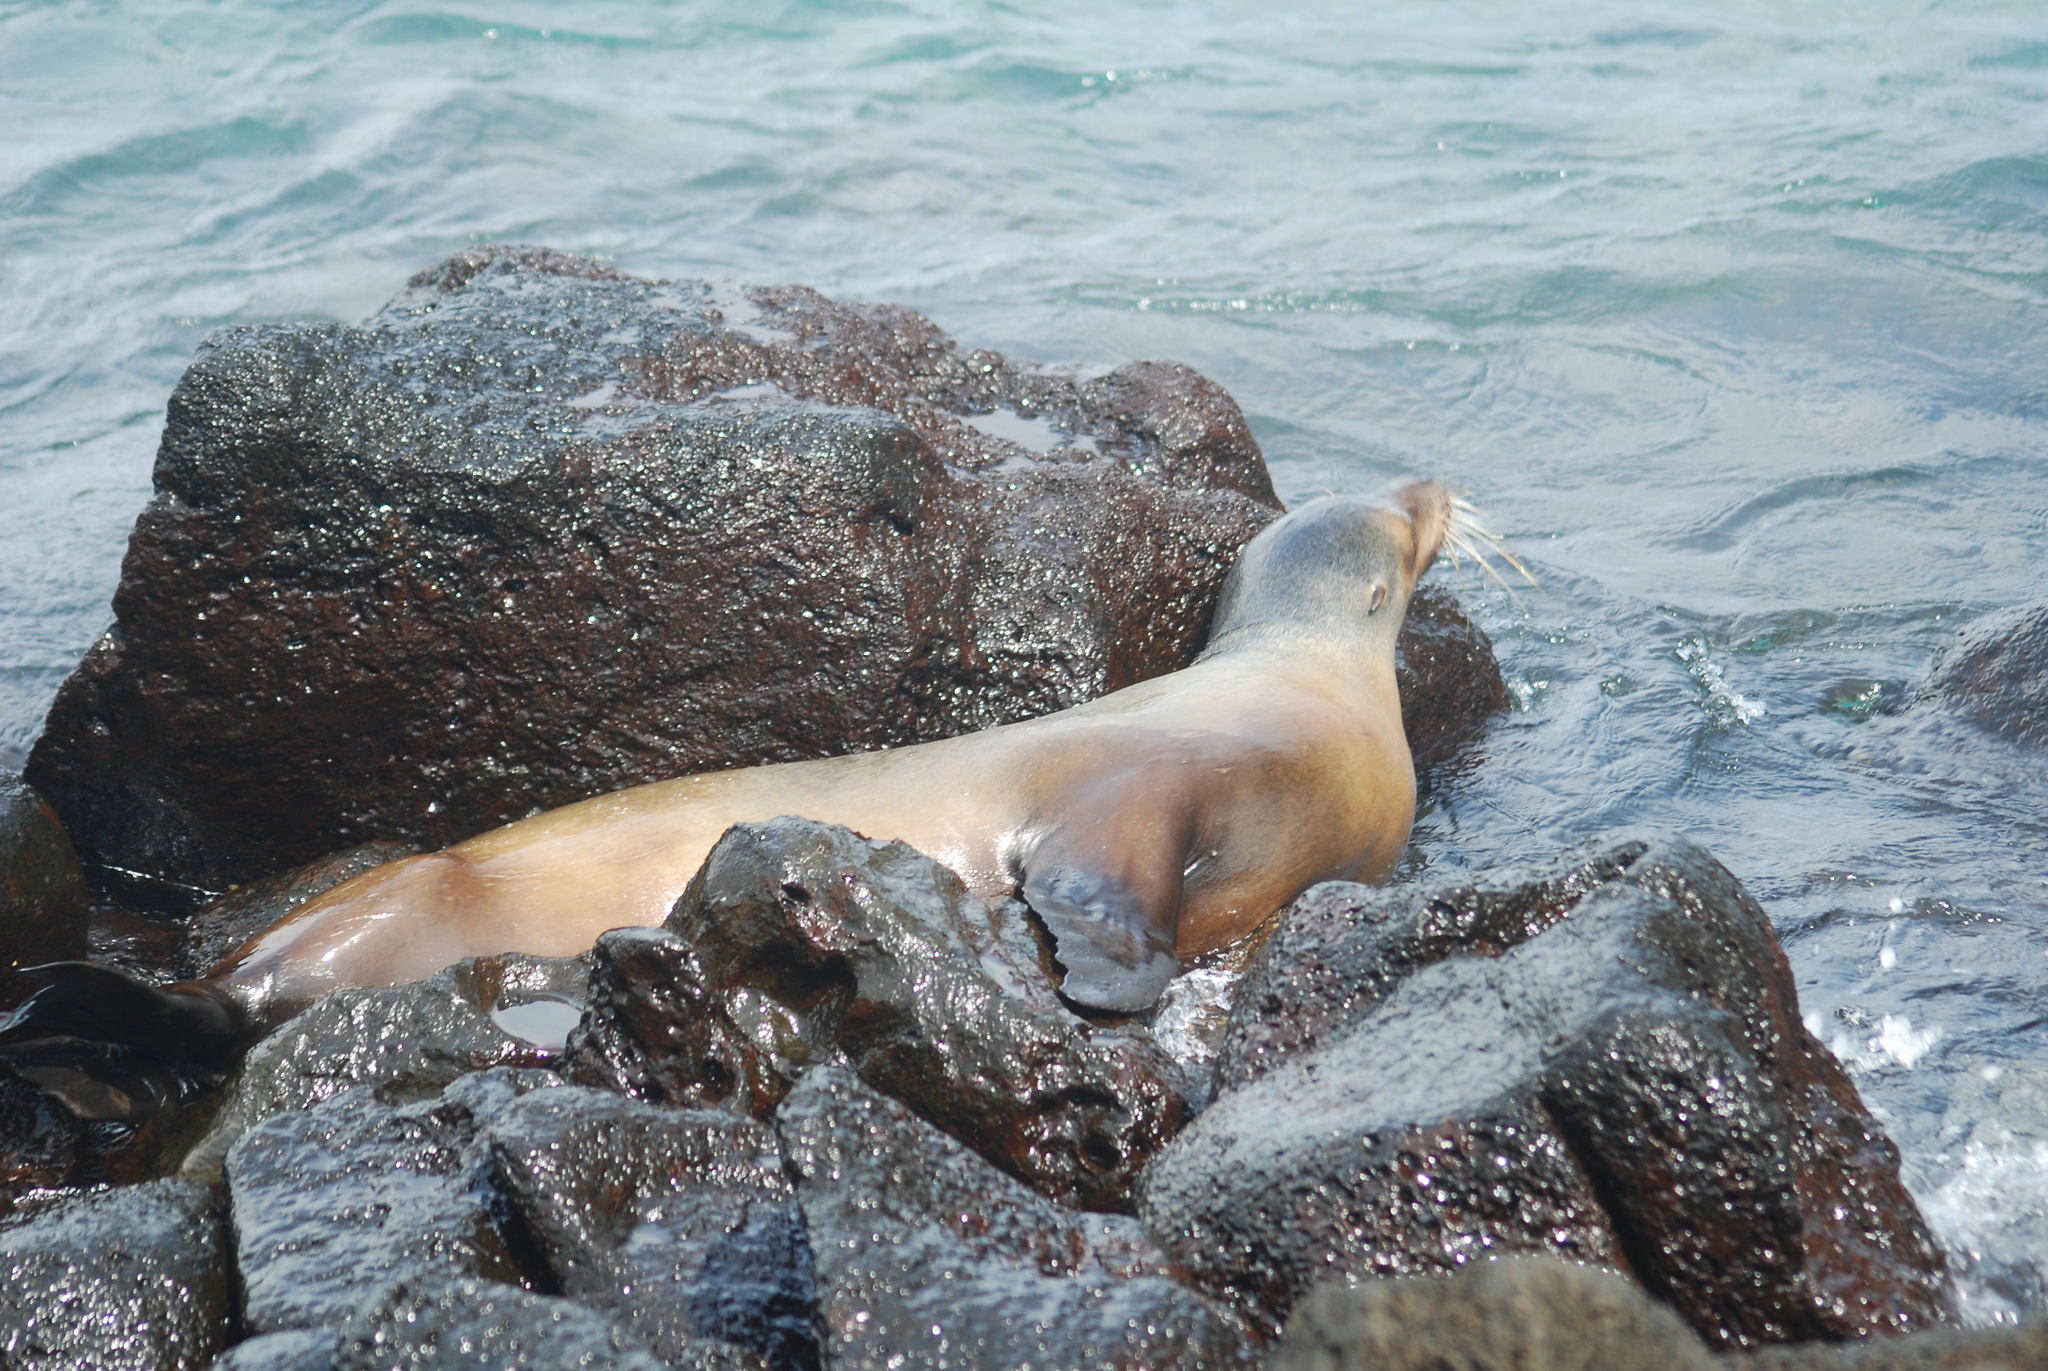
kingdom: Animalia
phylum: Chordata
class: Mammalia
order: Carnivora
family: Otariidae
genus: Zalophus
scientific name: Zalophus wollebaeki
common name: Galapagos sea lion
